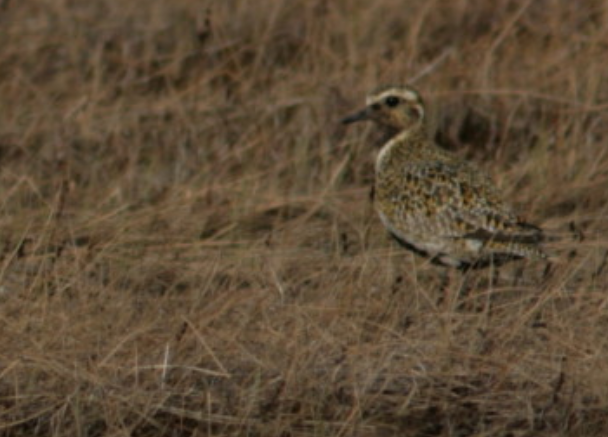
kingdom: Animalia
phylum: Chordata
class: Aves
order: Charadriiformes
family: Charadriidae
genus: Pluvialis
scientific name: Pluvialis apricaria
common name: European golden plover
